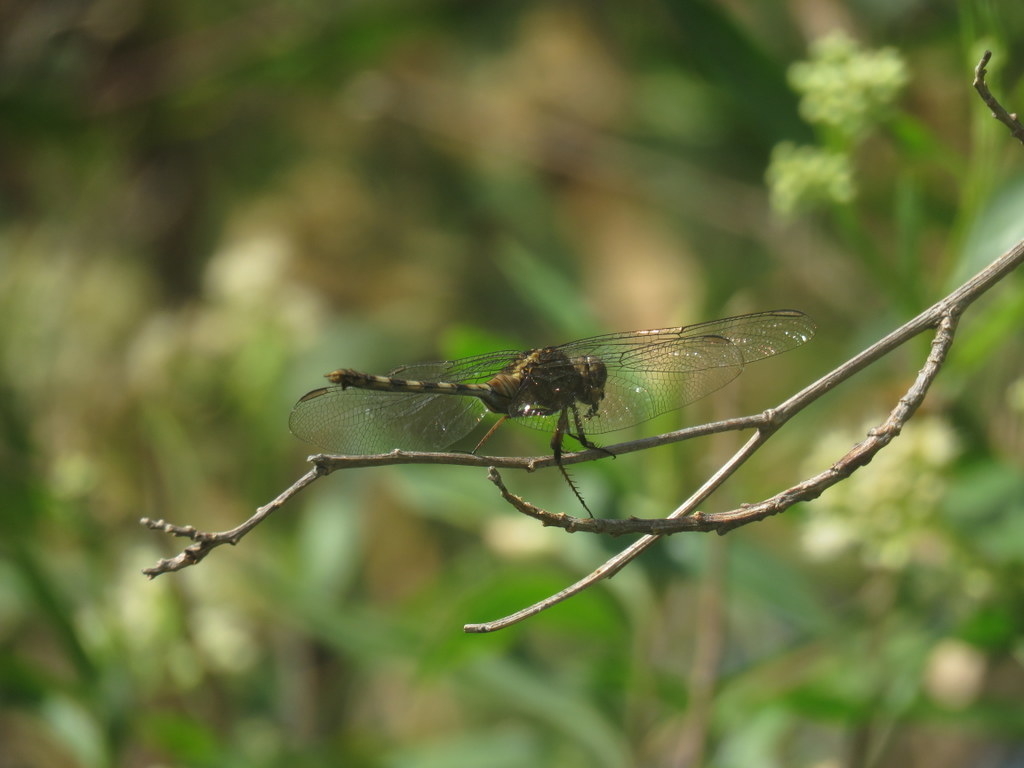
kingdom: Animalia
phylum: Arthropoda
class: Insecta
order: Odonata
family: Libellulidae
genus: Erythemis
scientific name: Erythemis plebeja
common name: Pin-tailed pondhawk
